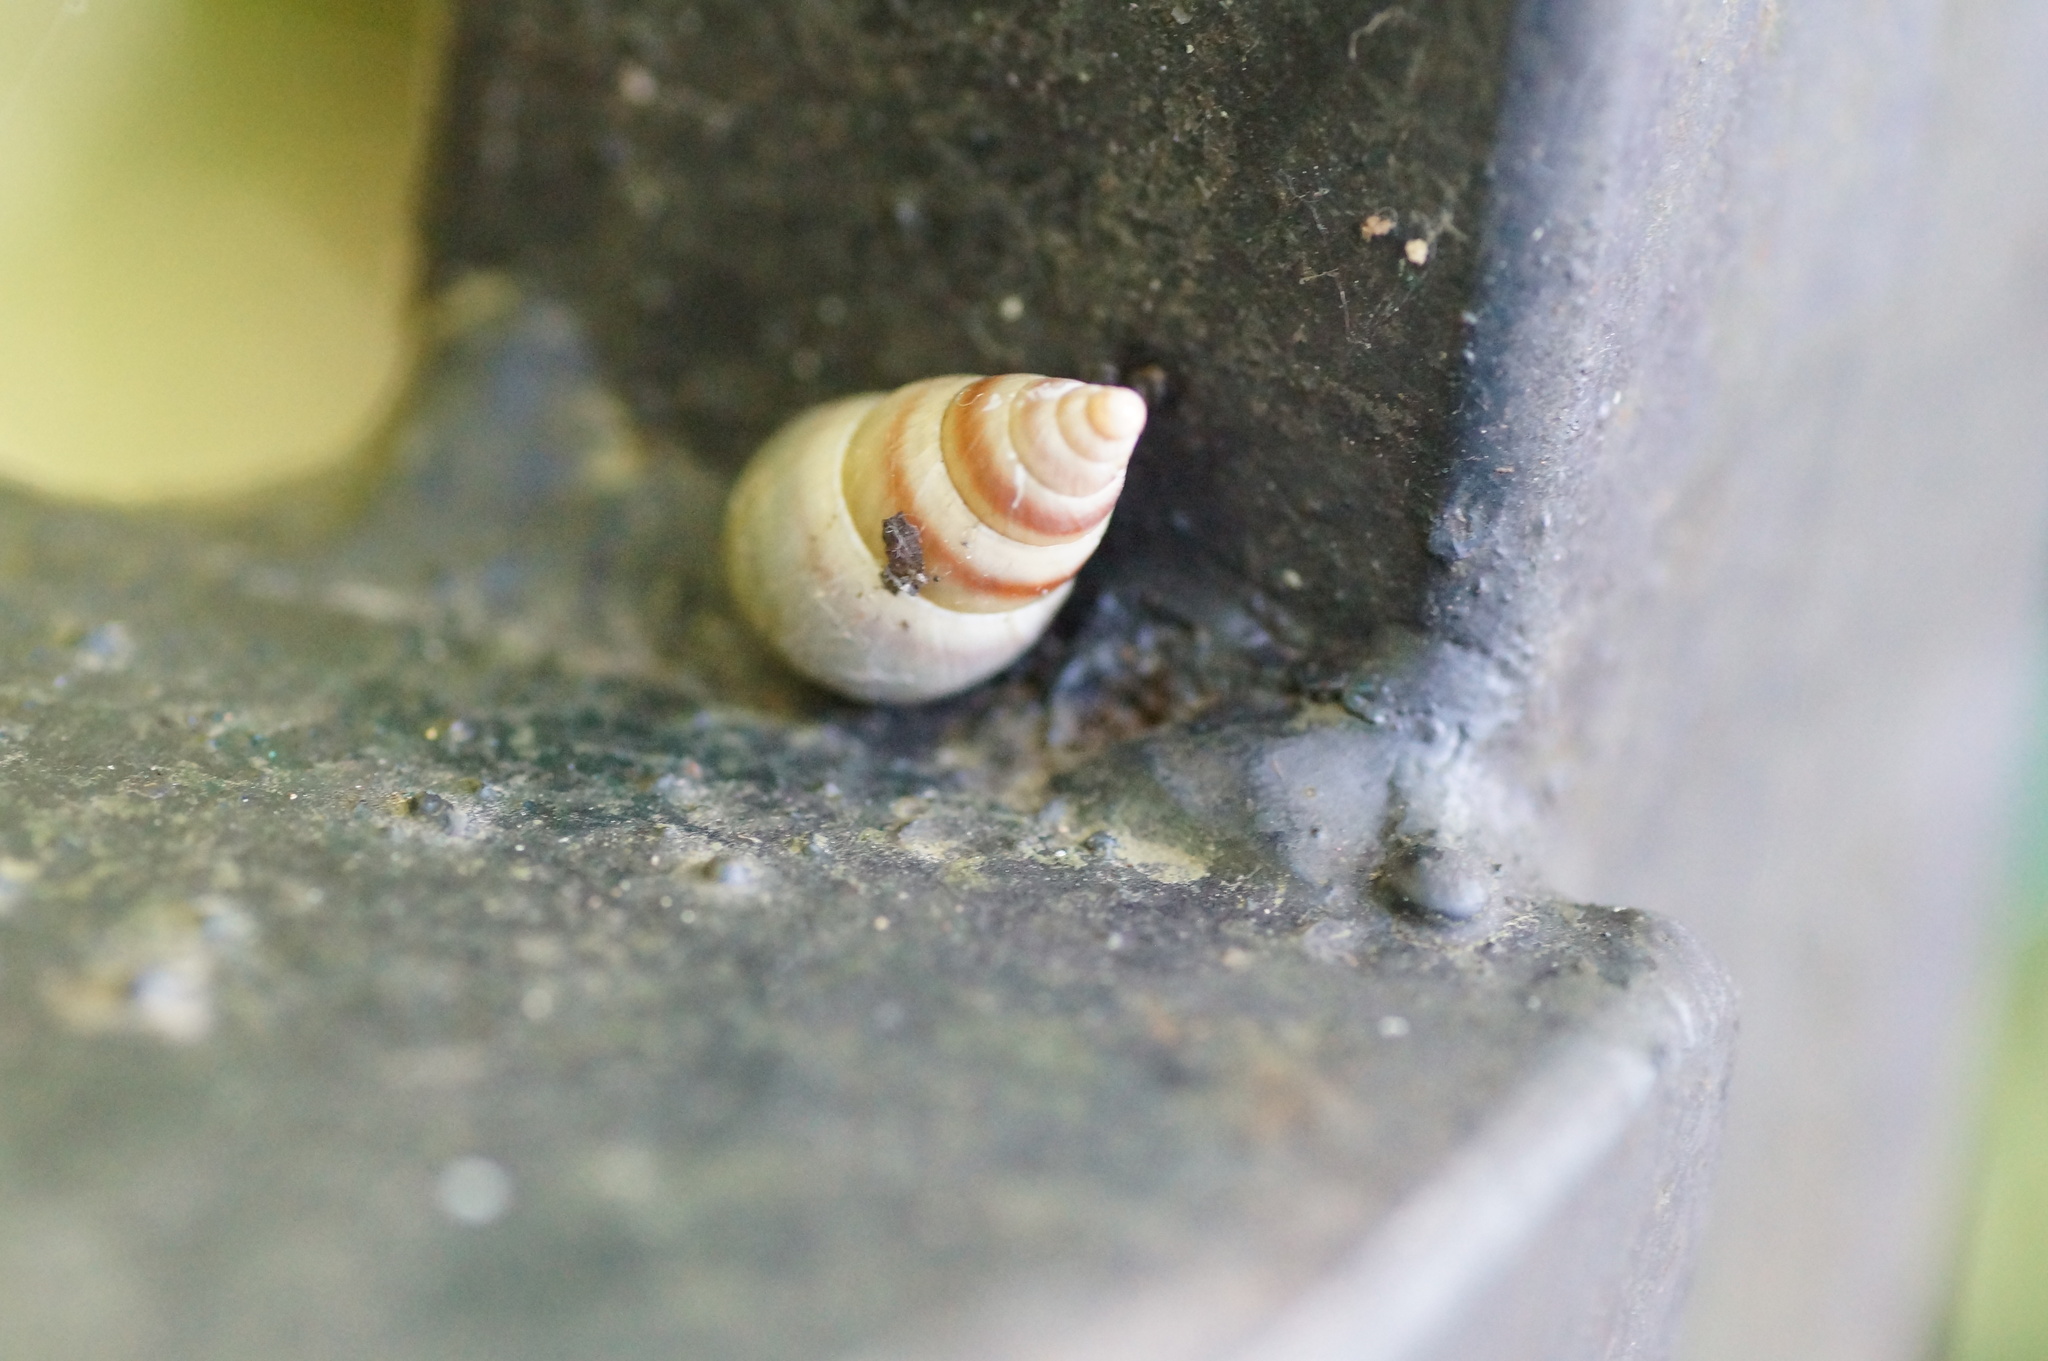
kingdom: Animalia
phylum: Mollusca
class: Gastropoda
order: Stylommatophora
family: Enidae
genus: Caucasicola
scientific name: Caucasicola raddei
